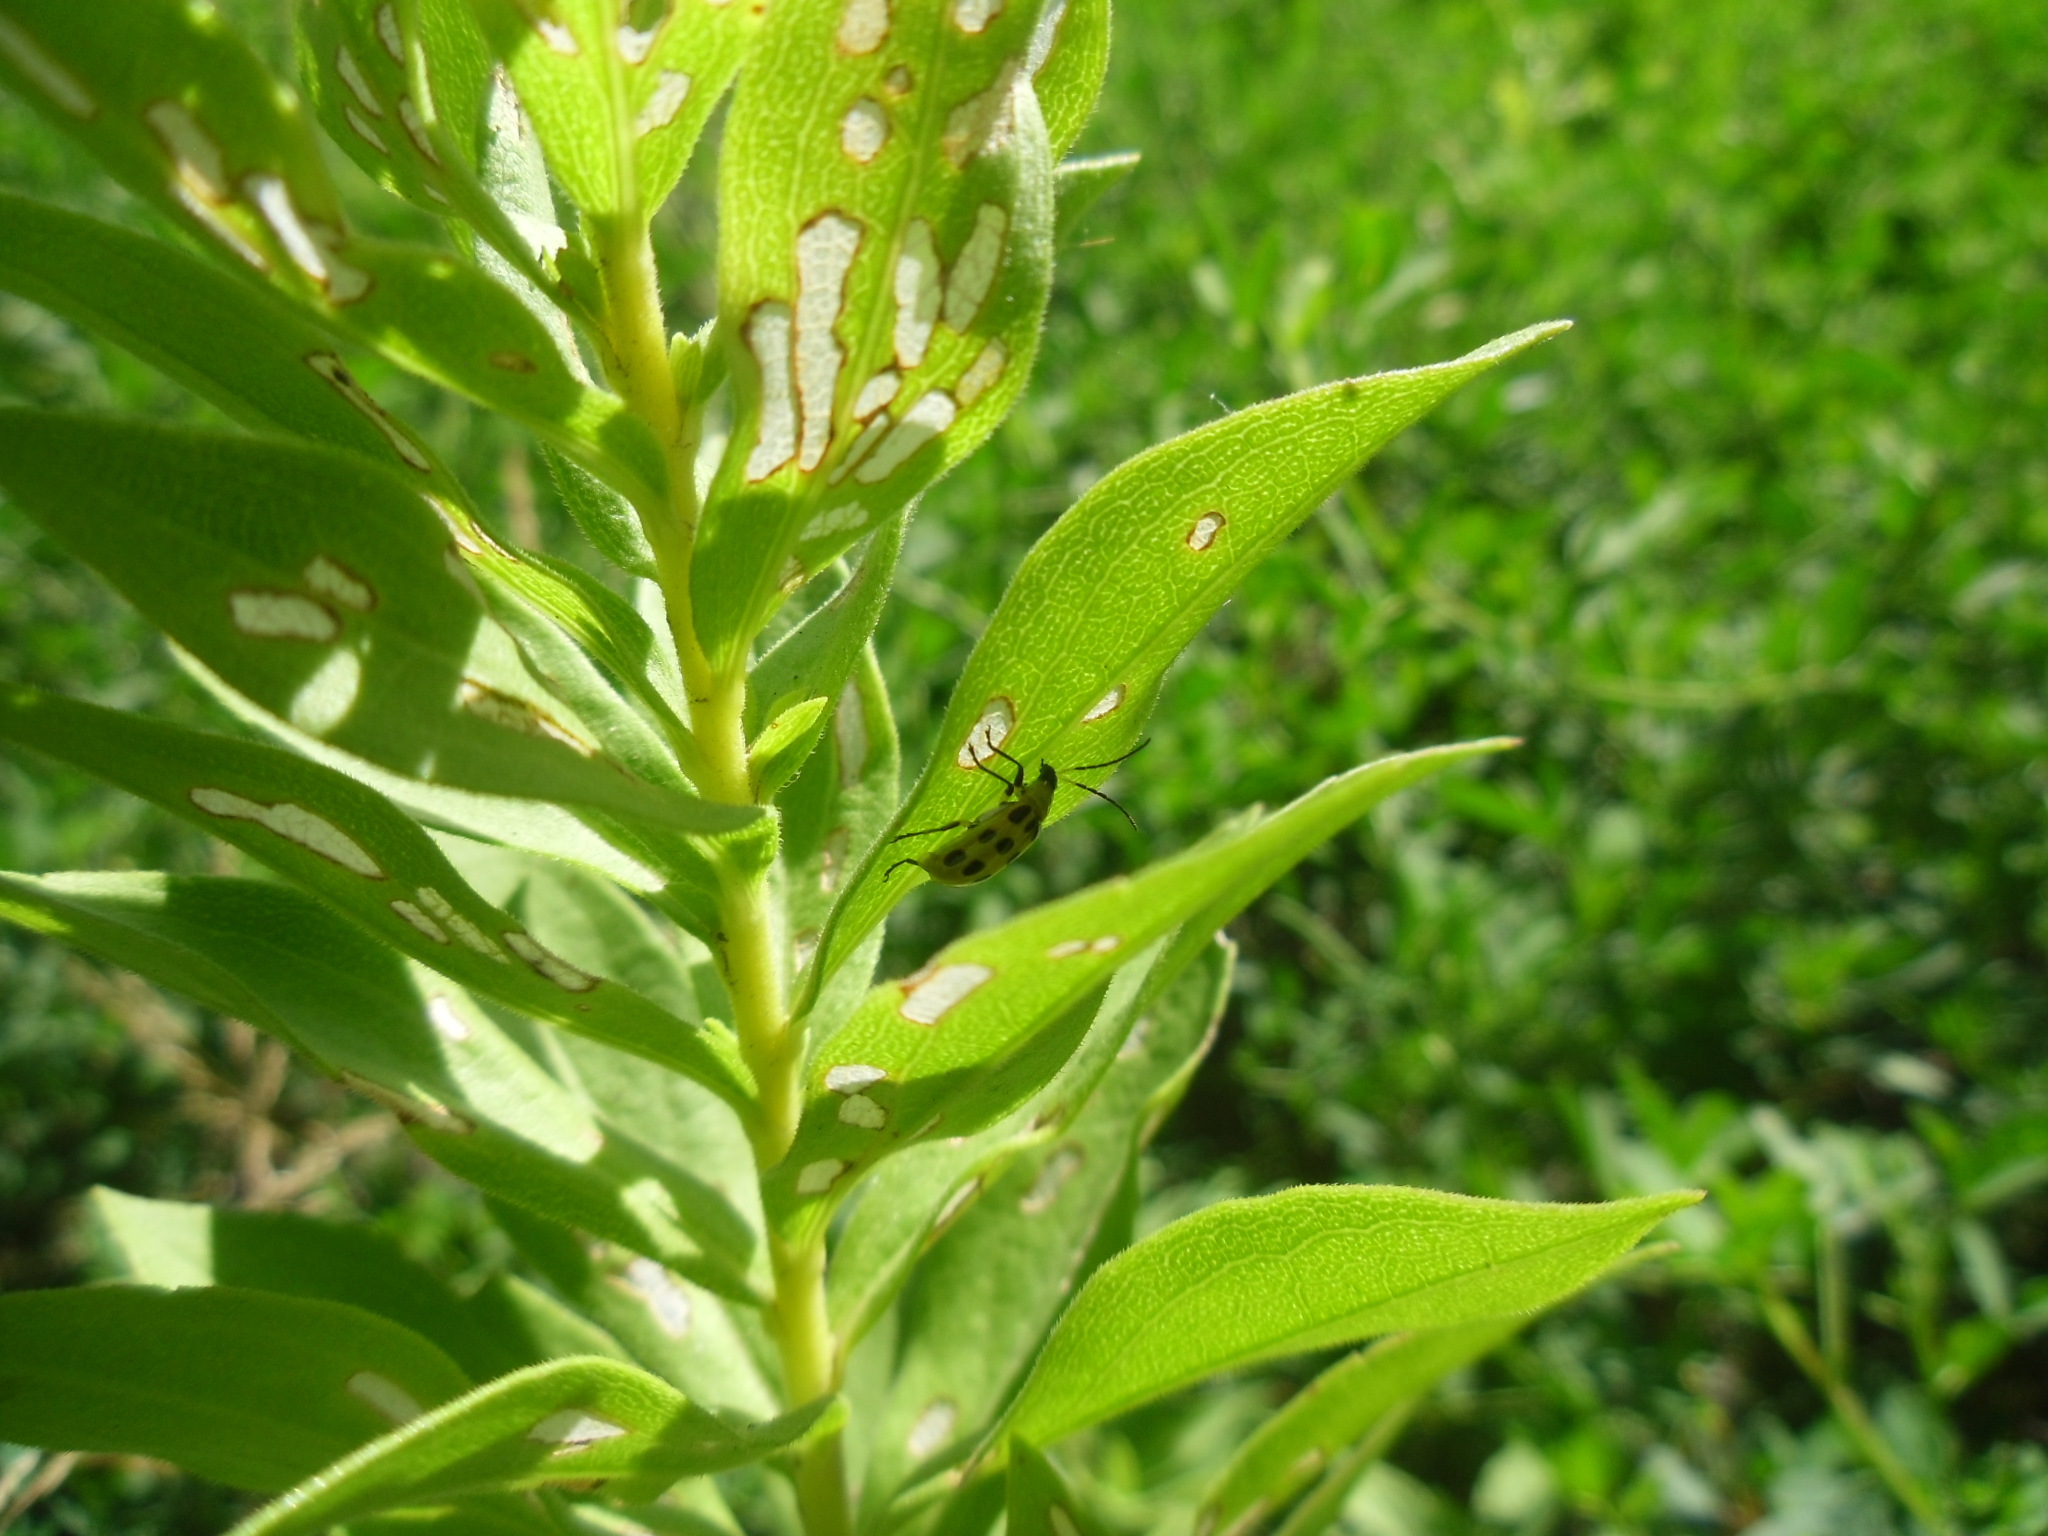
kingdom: Animalia
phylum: Arthropoda
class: Insecta
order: Coleoptera
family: Chrysomelidae
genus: Diabrotica
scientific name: Diabrotica undecimpunctata
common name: Spotted cucumber beetle
